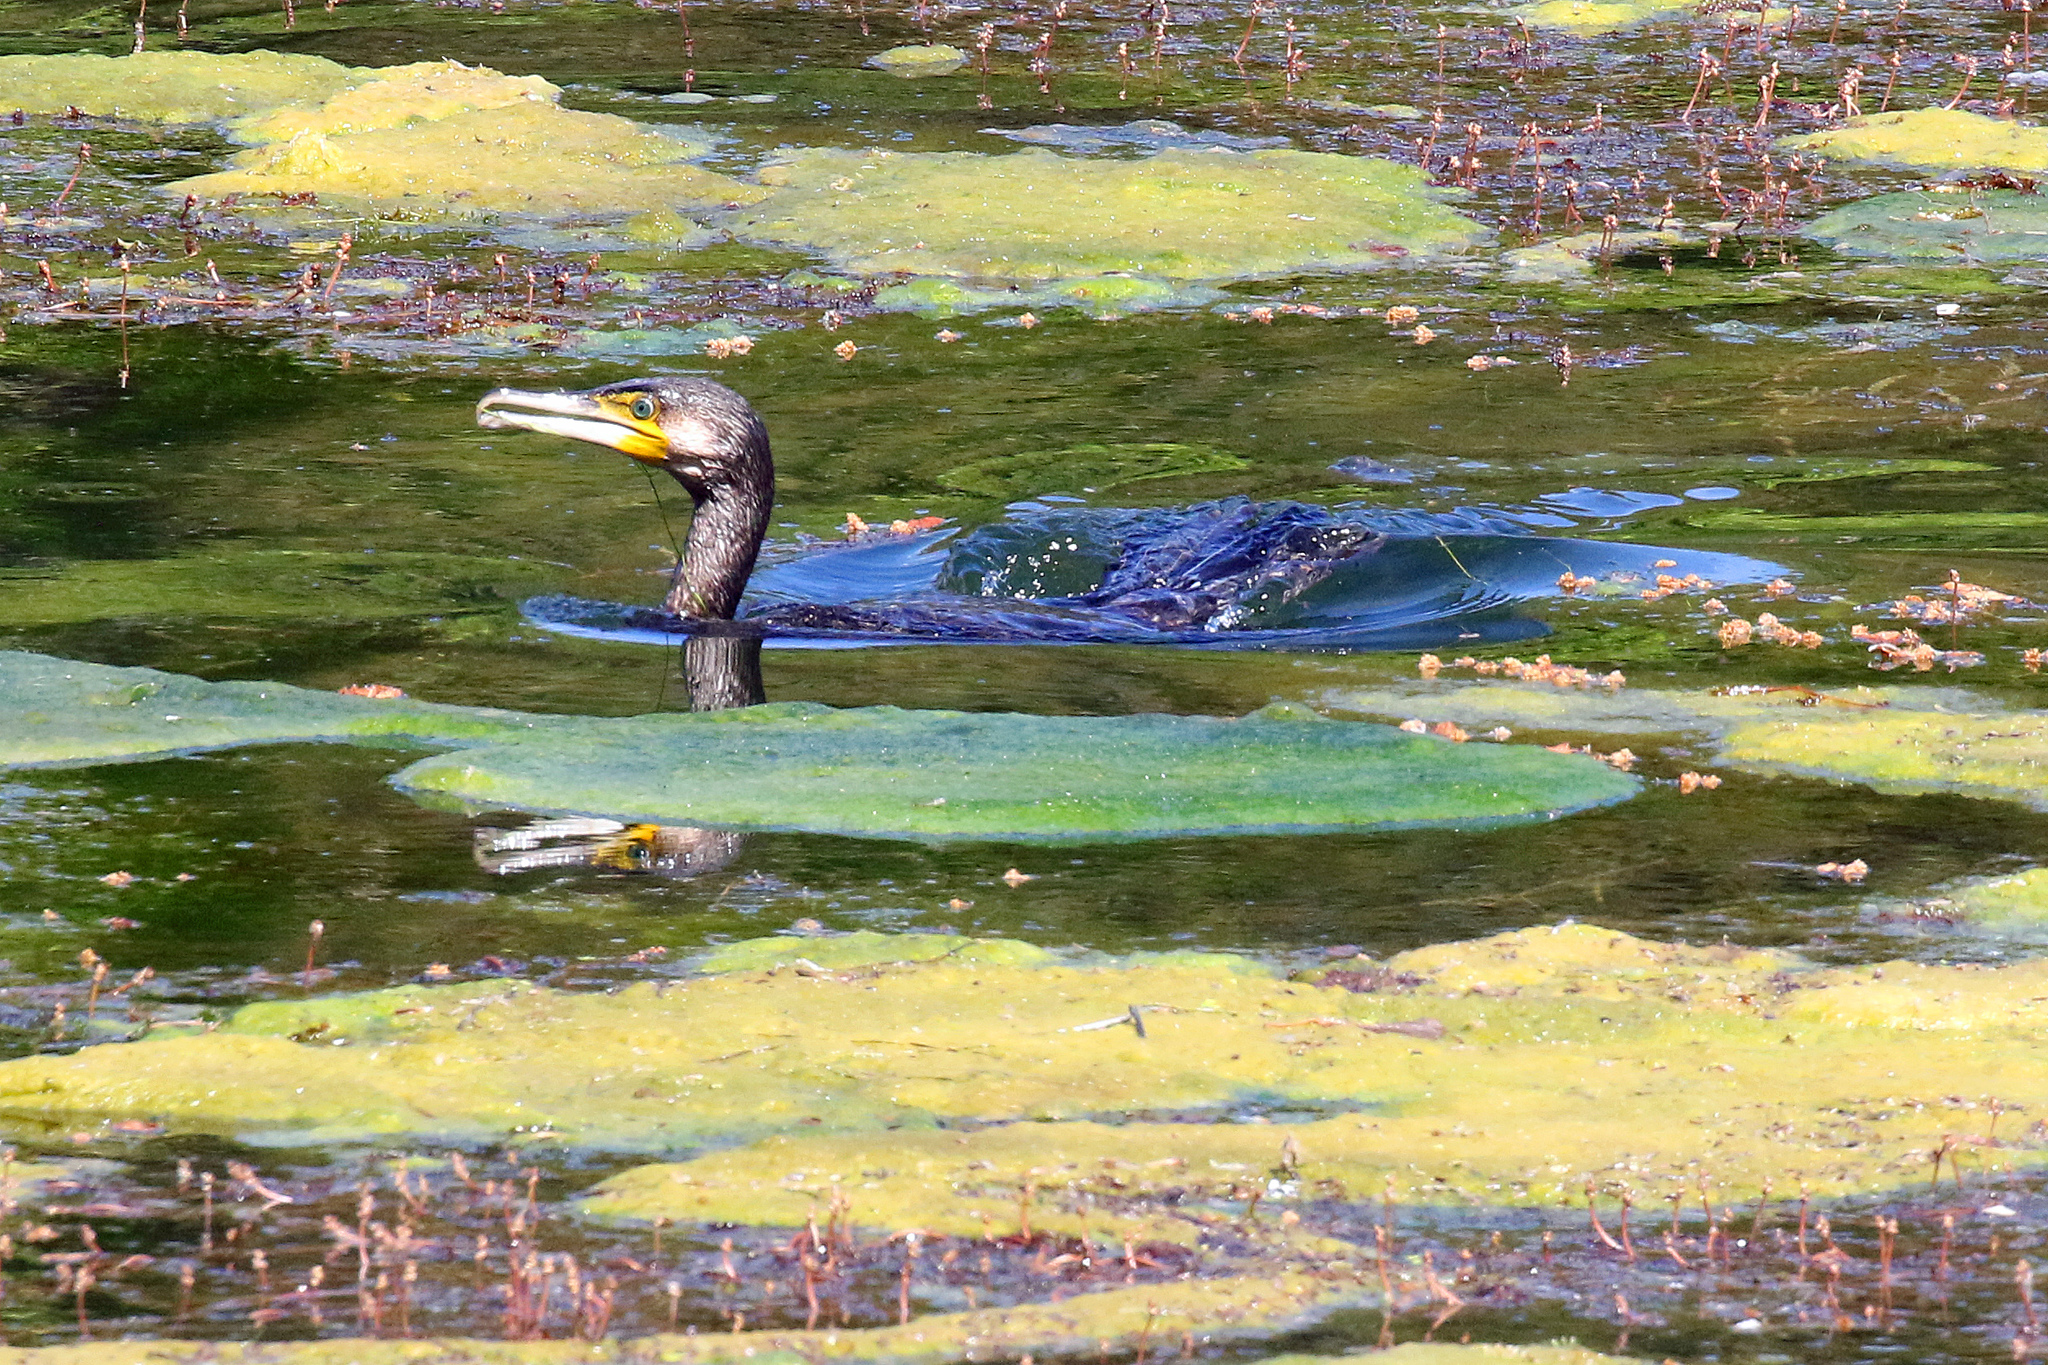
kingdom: Animalia
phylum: Chordata
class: Aves
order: Suliformes
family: Phalacrocoracidae
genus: Phalacrocorax
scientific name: Phalacrocorax carbo
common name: Great cormorant
